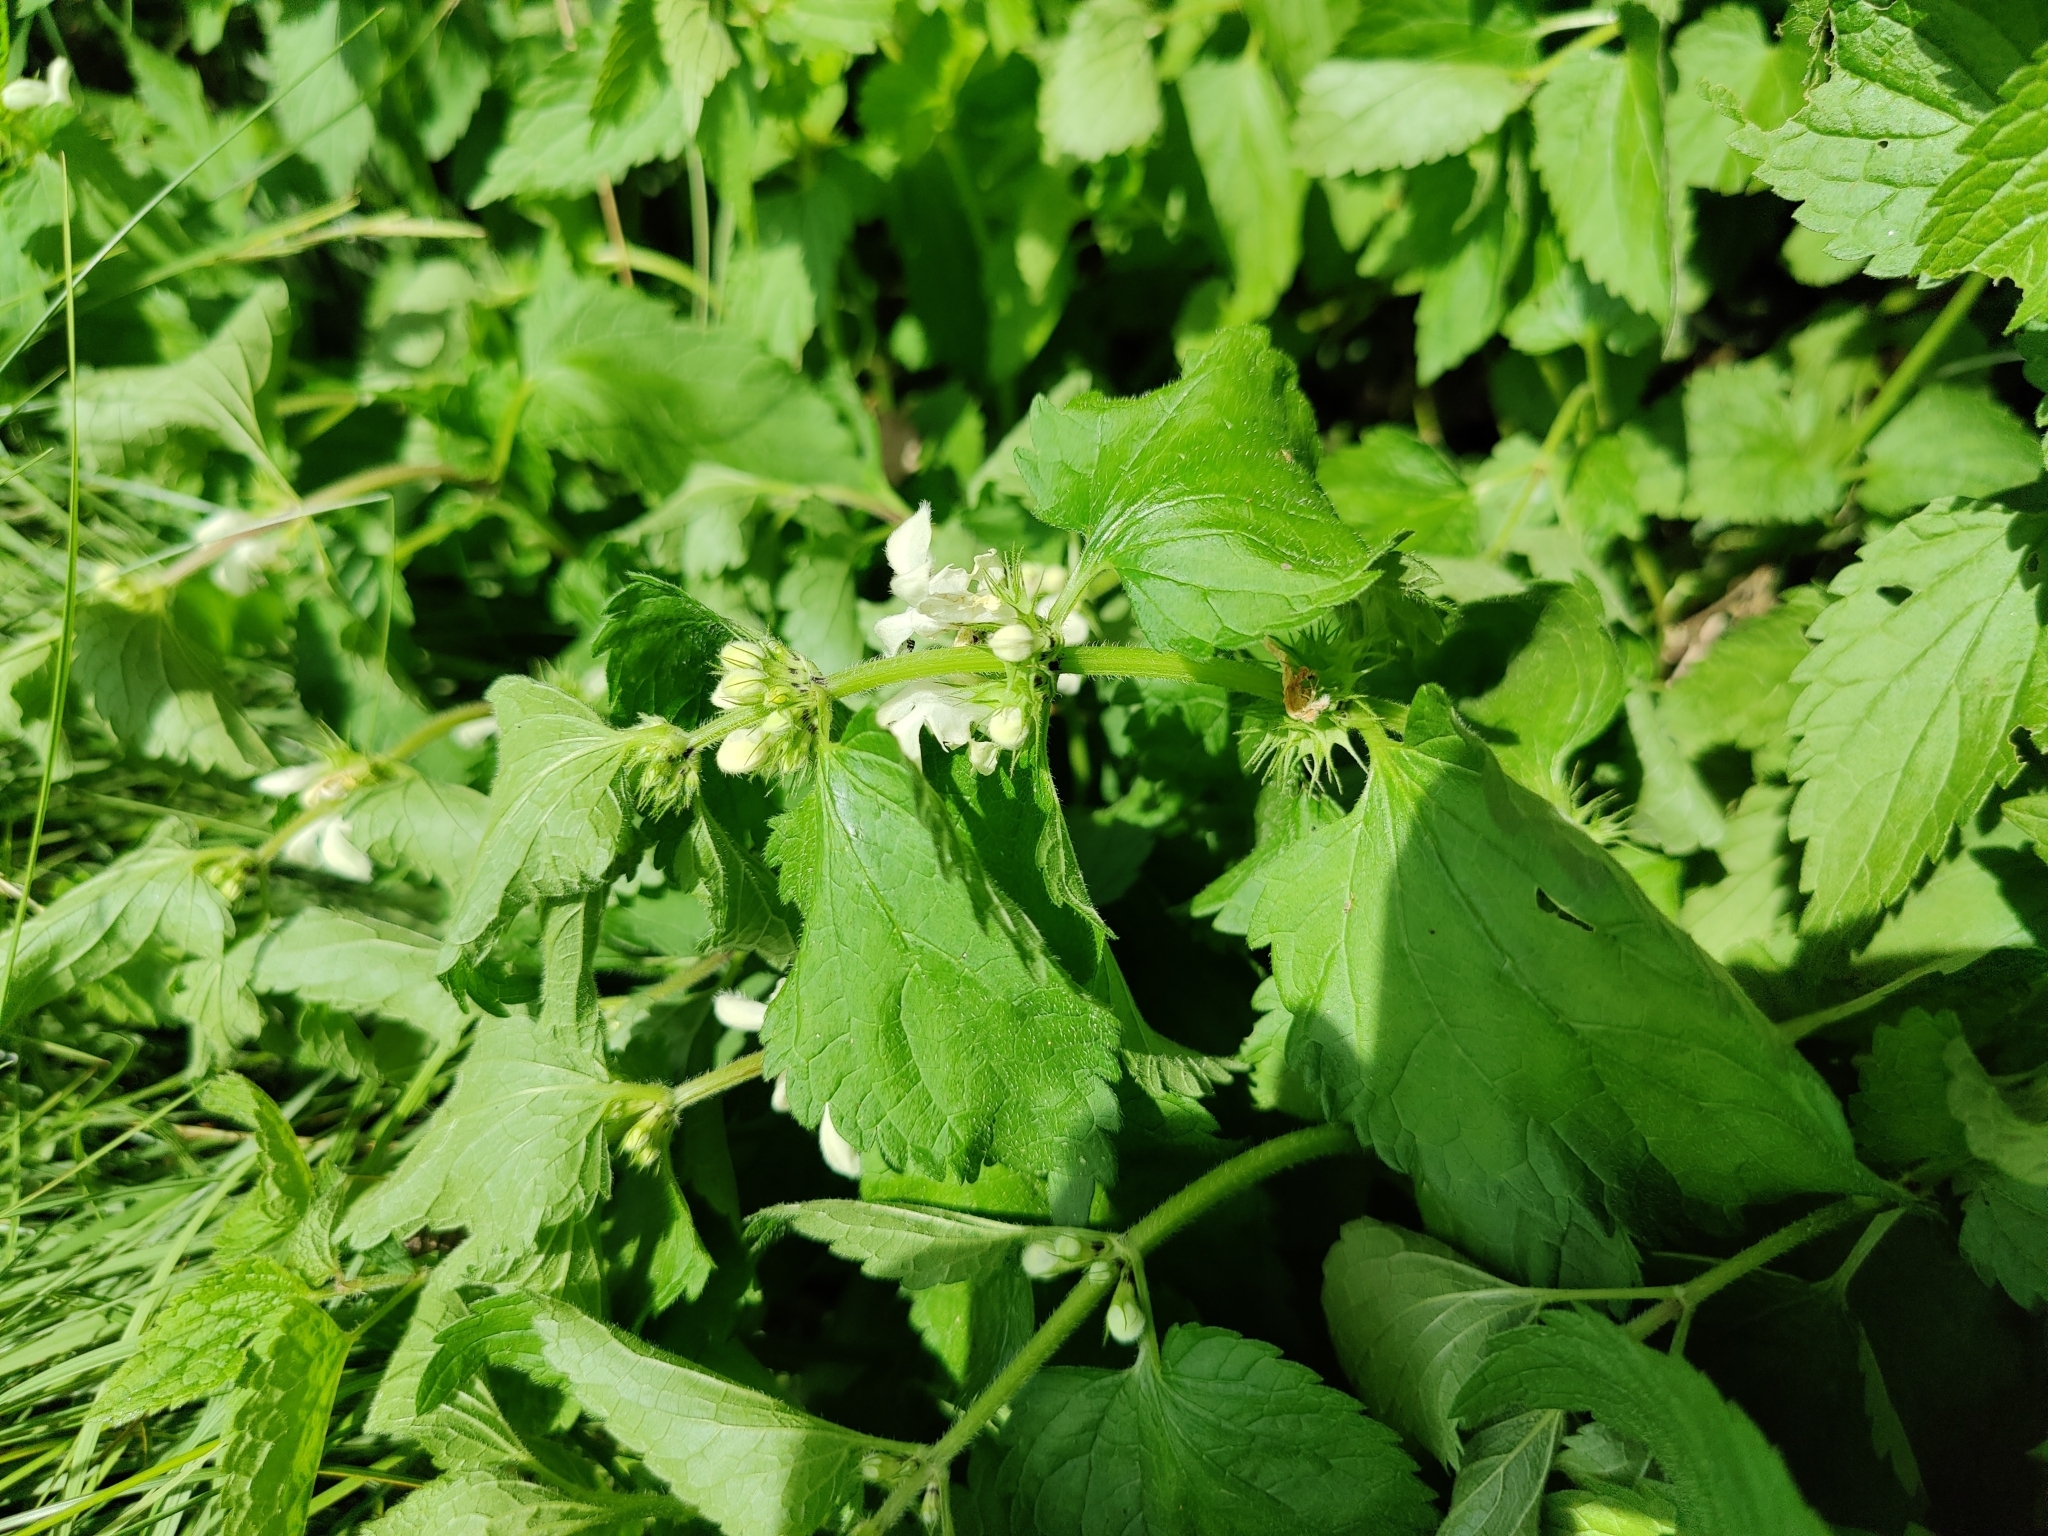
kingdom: Plantae
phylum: Tracheophyta
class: Magnoliopsida
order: Lamiales
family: Lamiaceae
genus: Lamium
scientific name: Lamium album
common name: White dead-nettle
